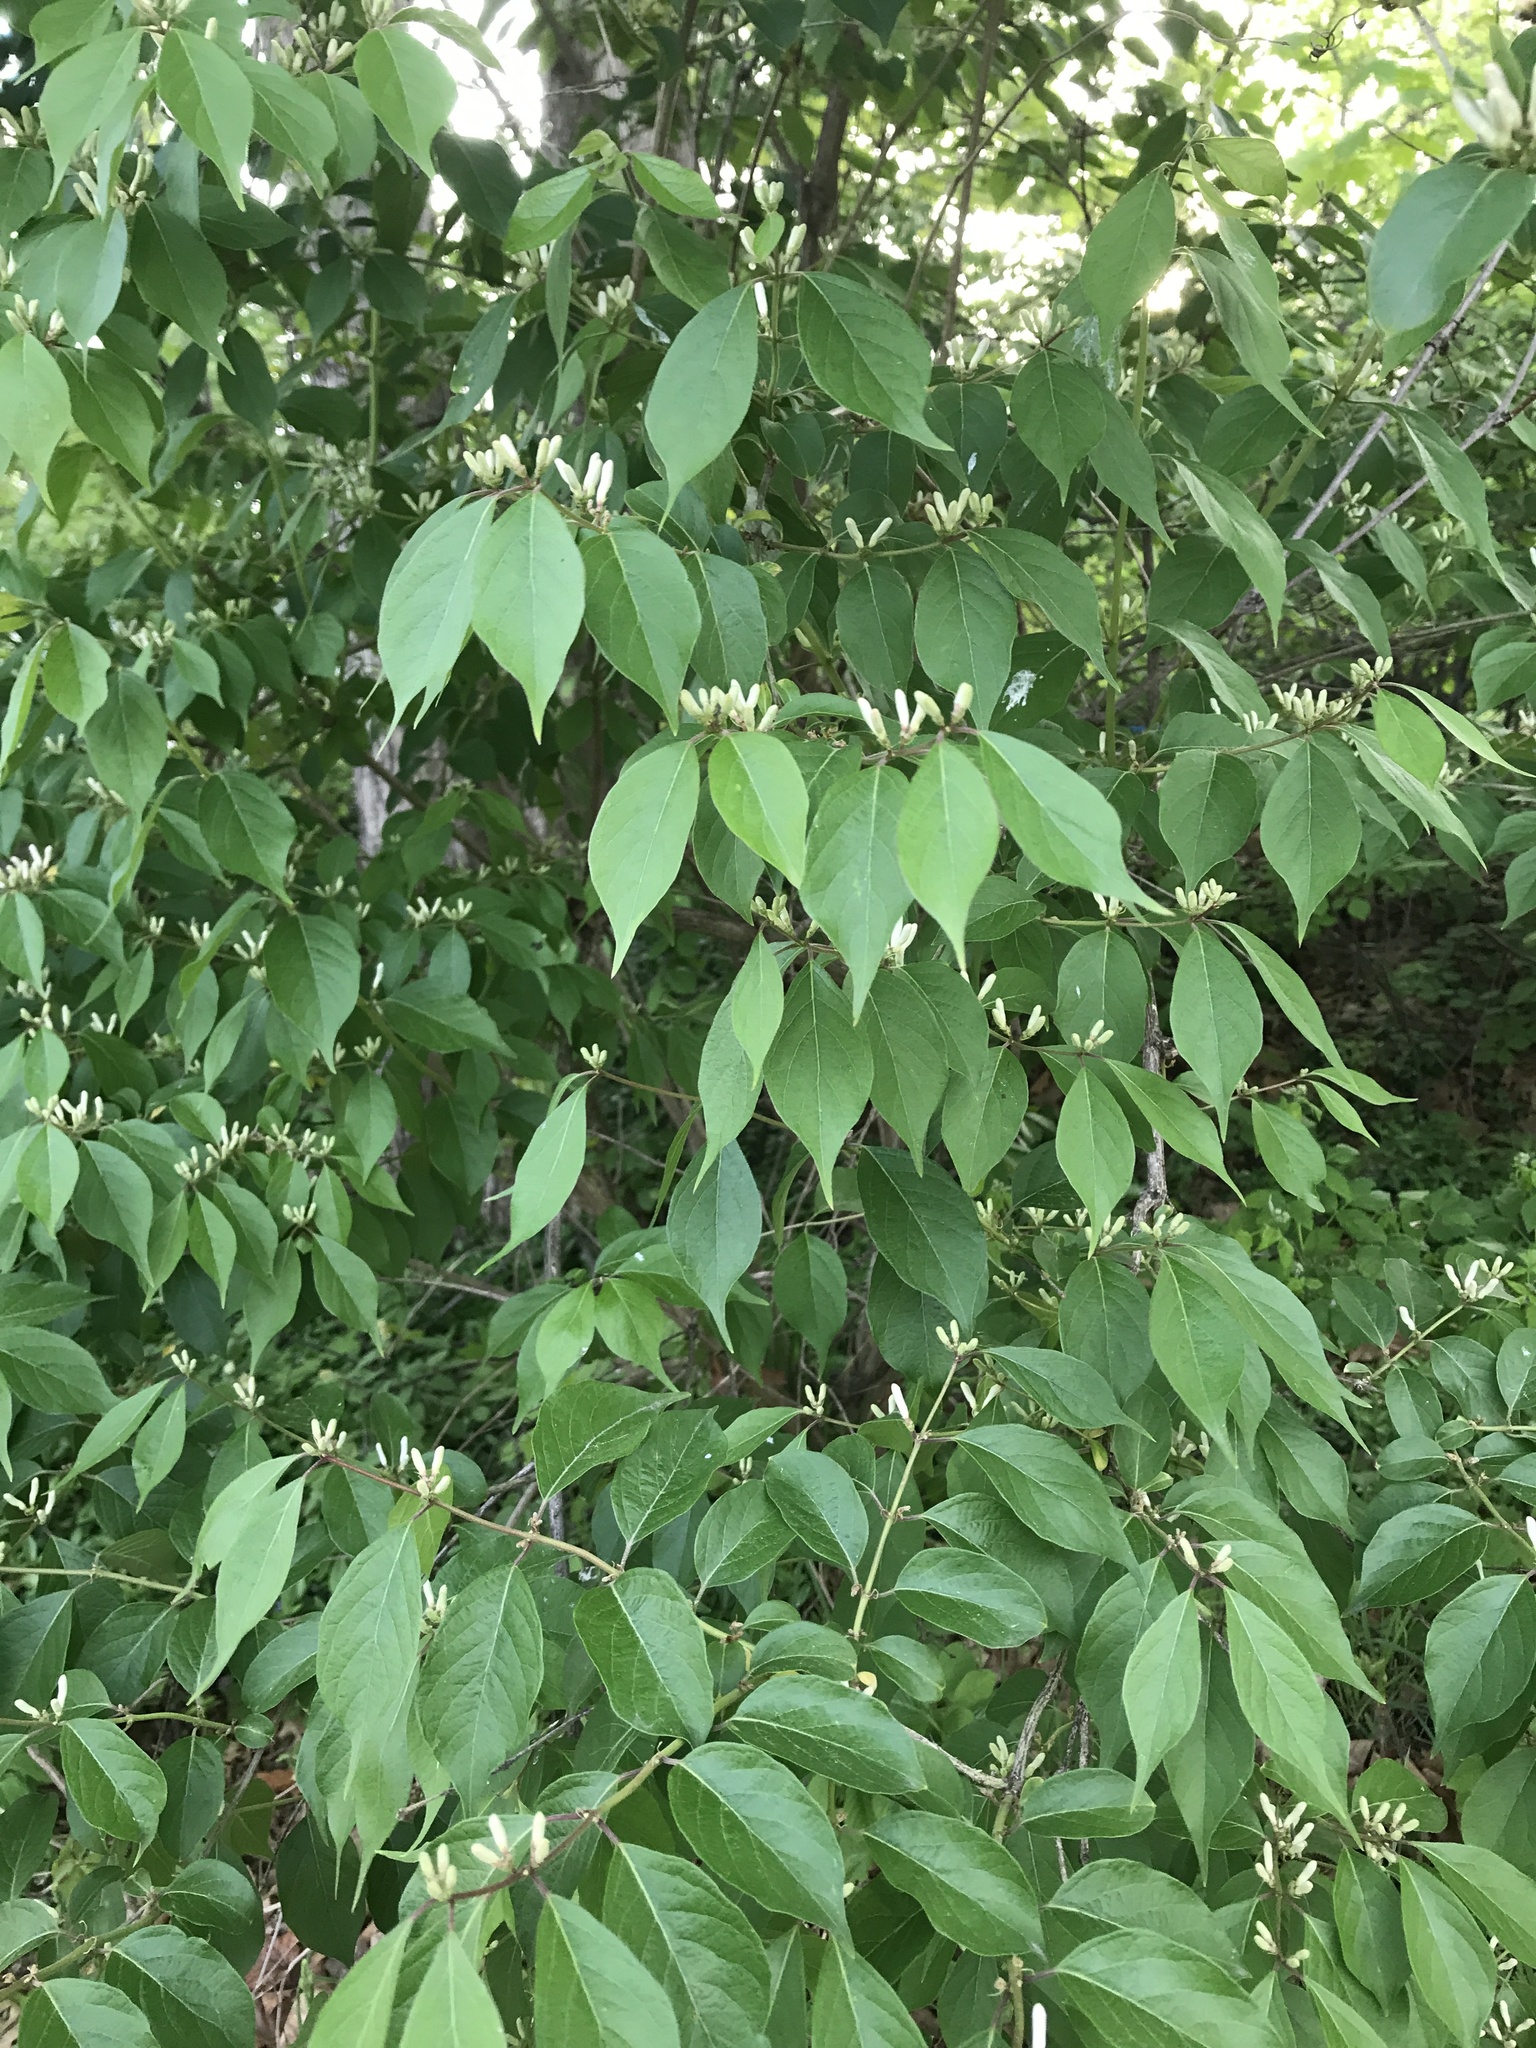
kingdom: Plantae
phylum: Tracheophyta
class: Magnoliopsida
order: Dipsacales
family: Caprifoliaceae
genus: Lonicera
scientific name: Lonicera maackii
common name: Amur honeysuckle
